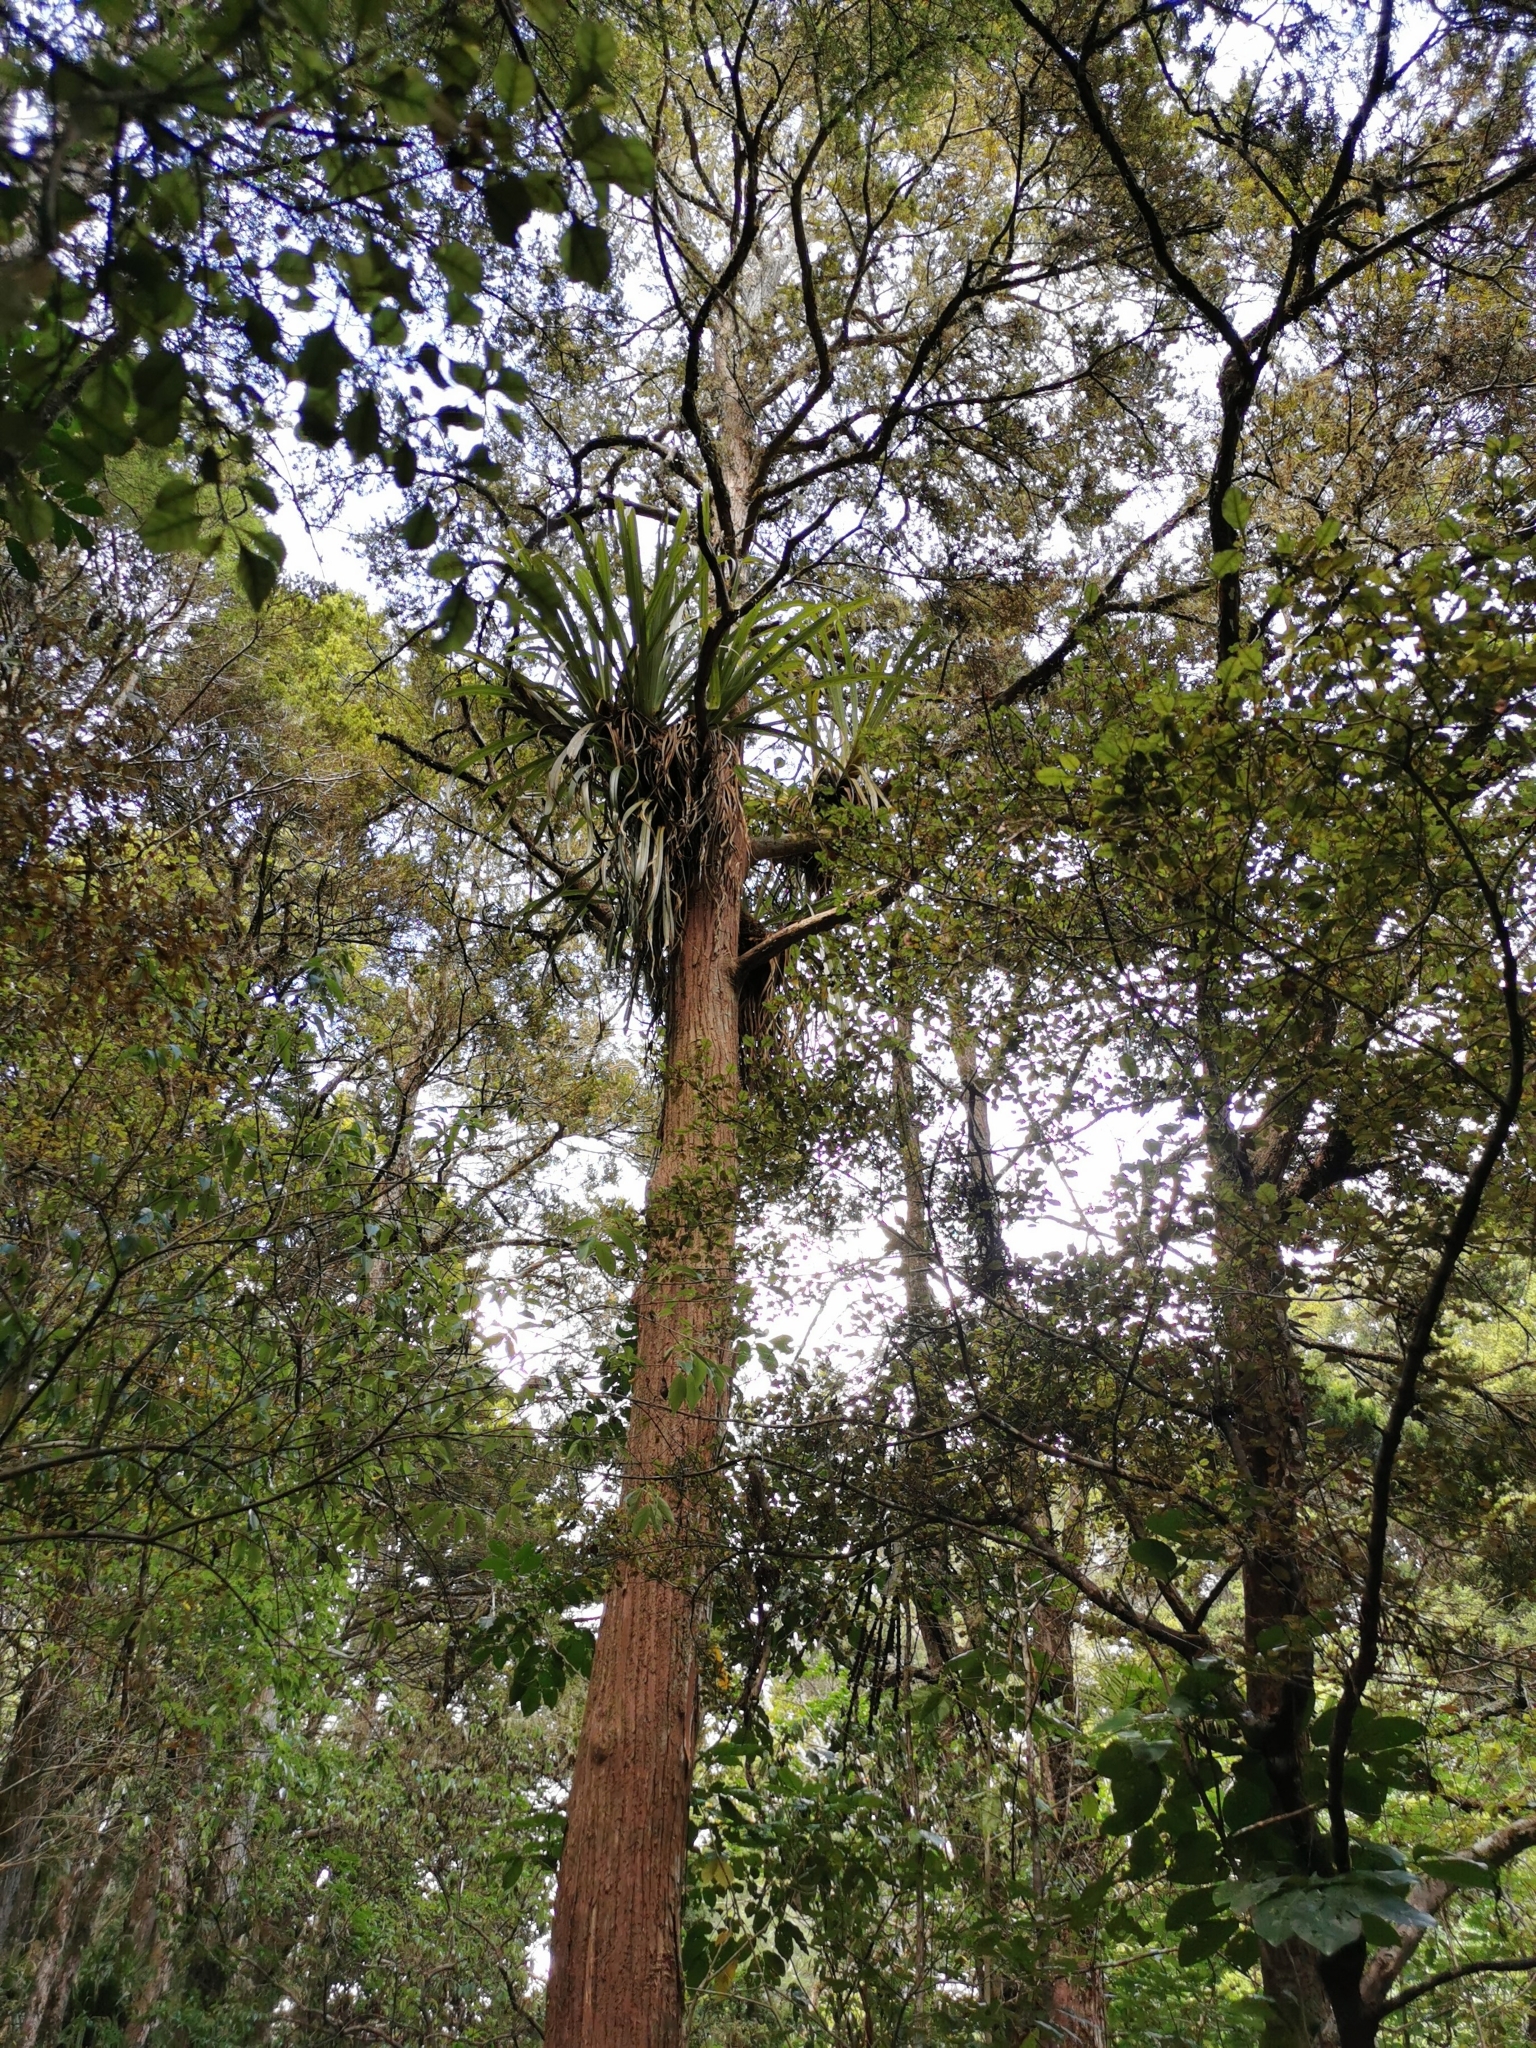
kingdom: Plantae
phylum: Tracheophyta
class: Liliopsida
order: Asparagales
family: Asteliaceae
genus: Astelia
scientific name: Astelia hastata
